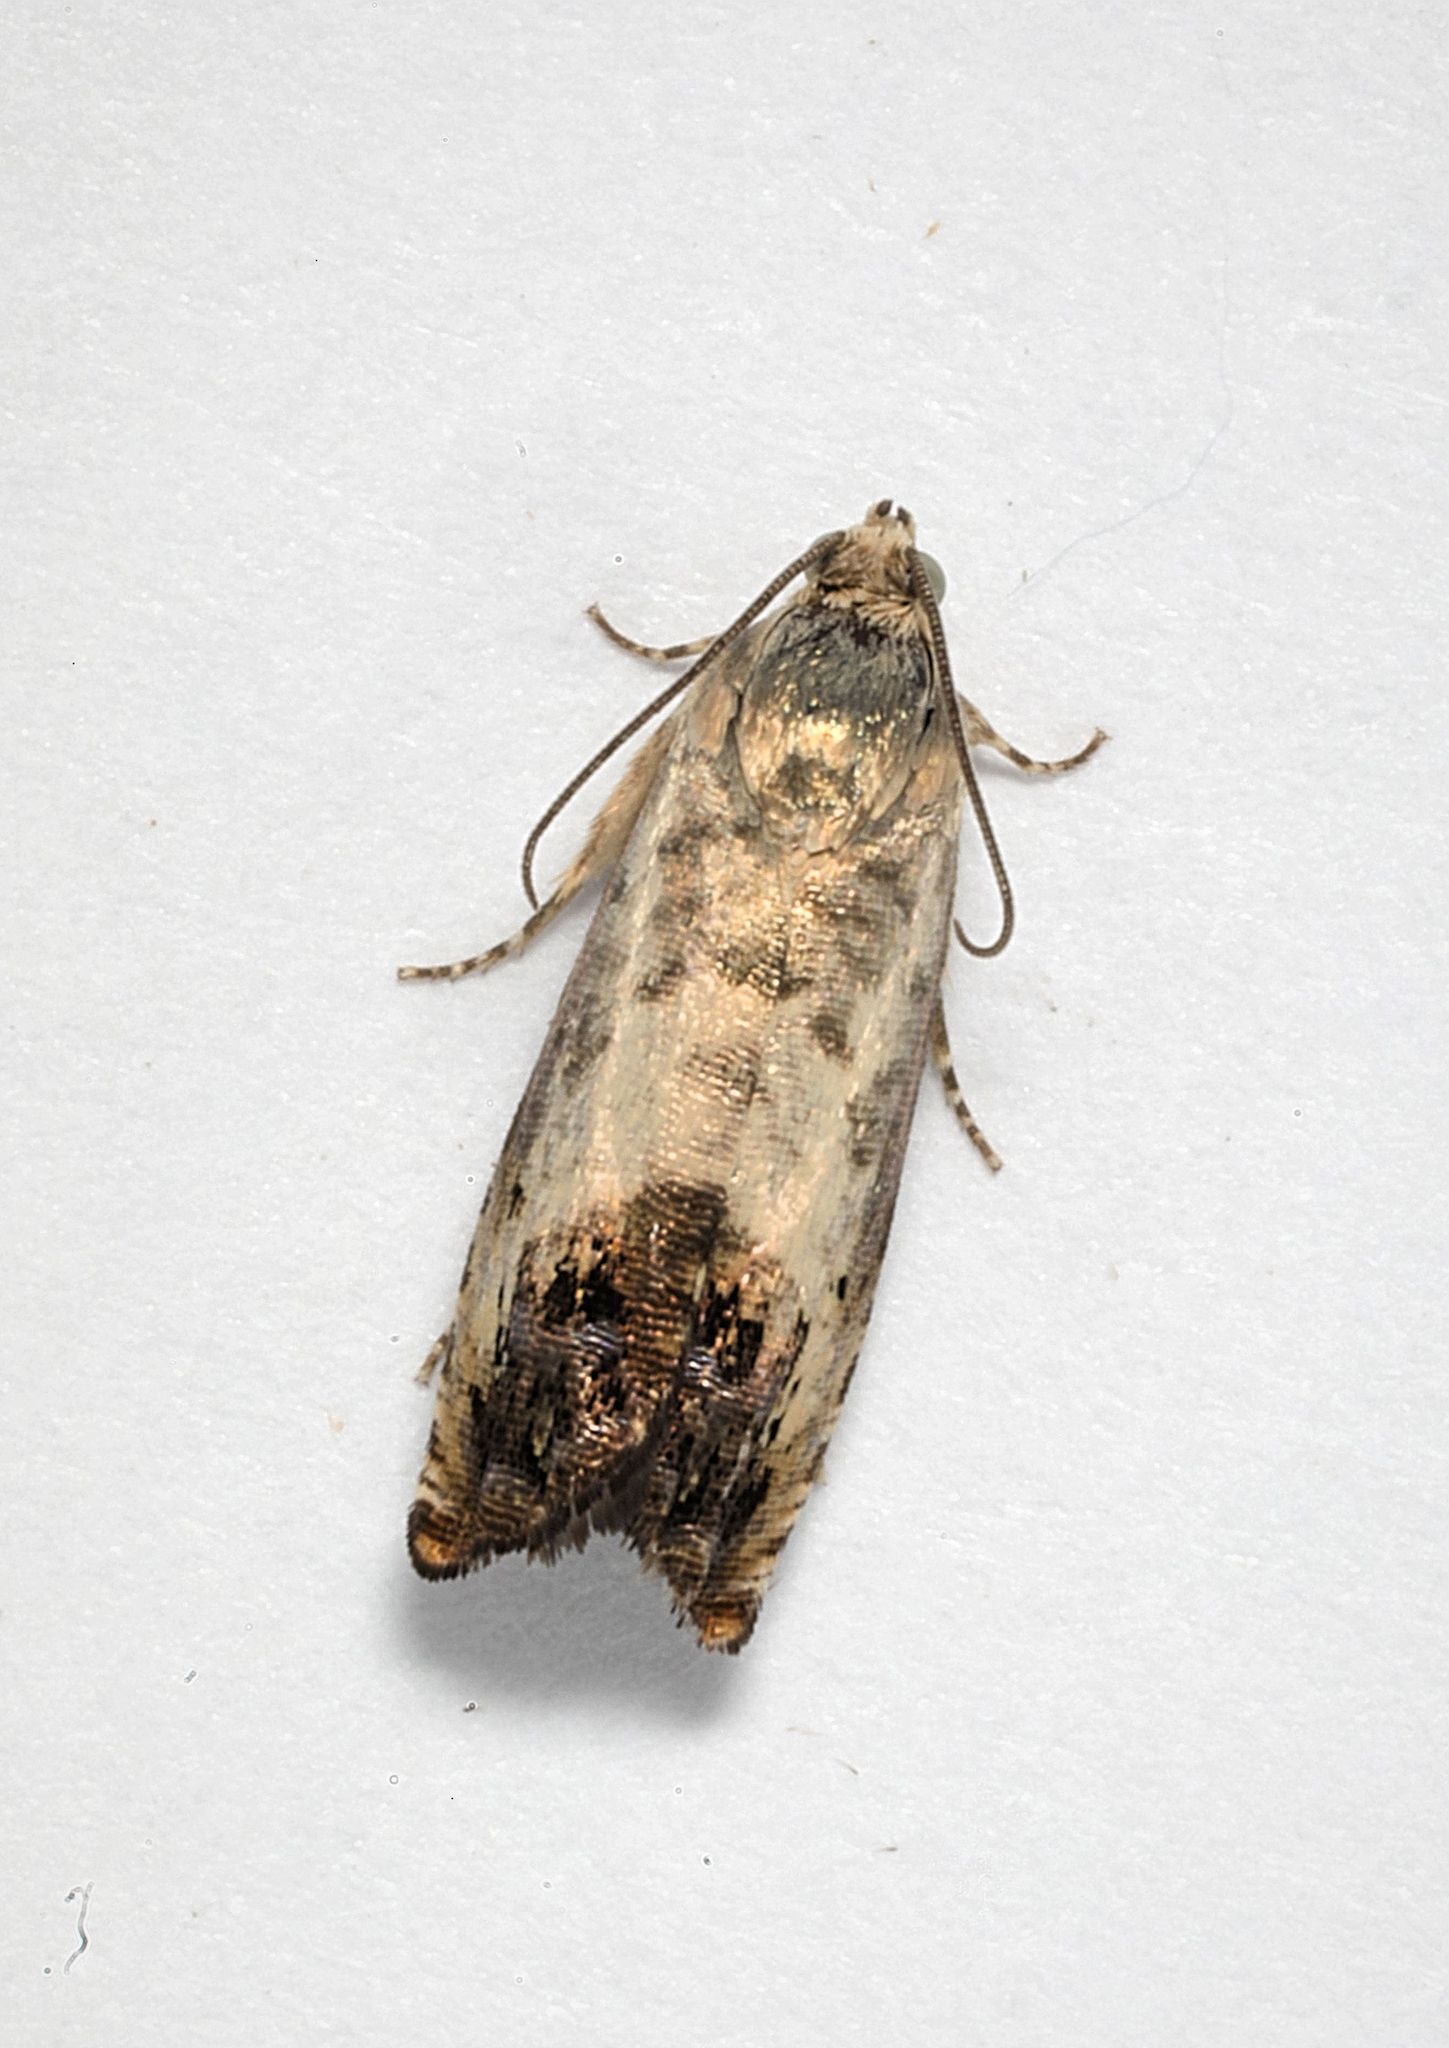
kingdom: Animalia
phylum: Arthropoda
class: Insecta
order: Lepidoptera
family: Tortricidae
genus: Pammene
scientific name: Pammene fasciana
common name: Acorn piercer
